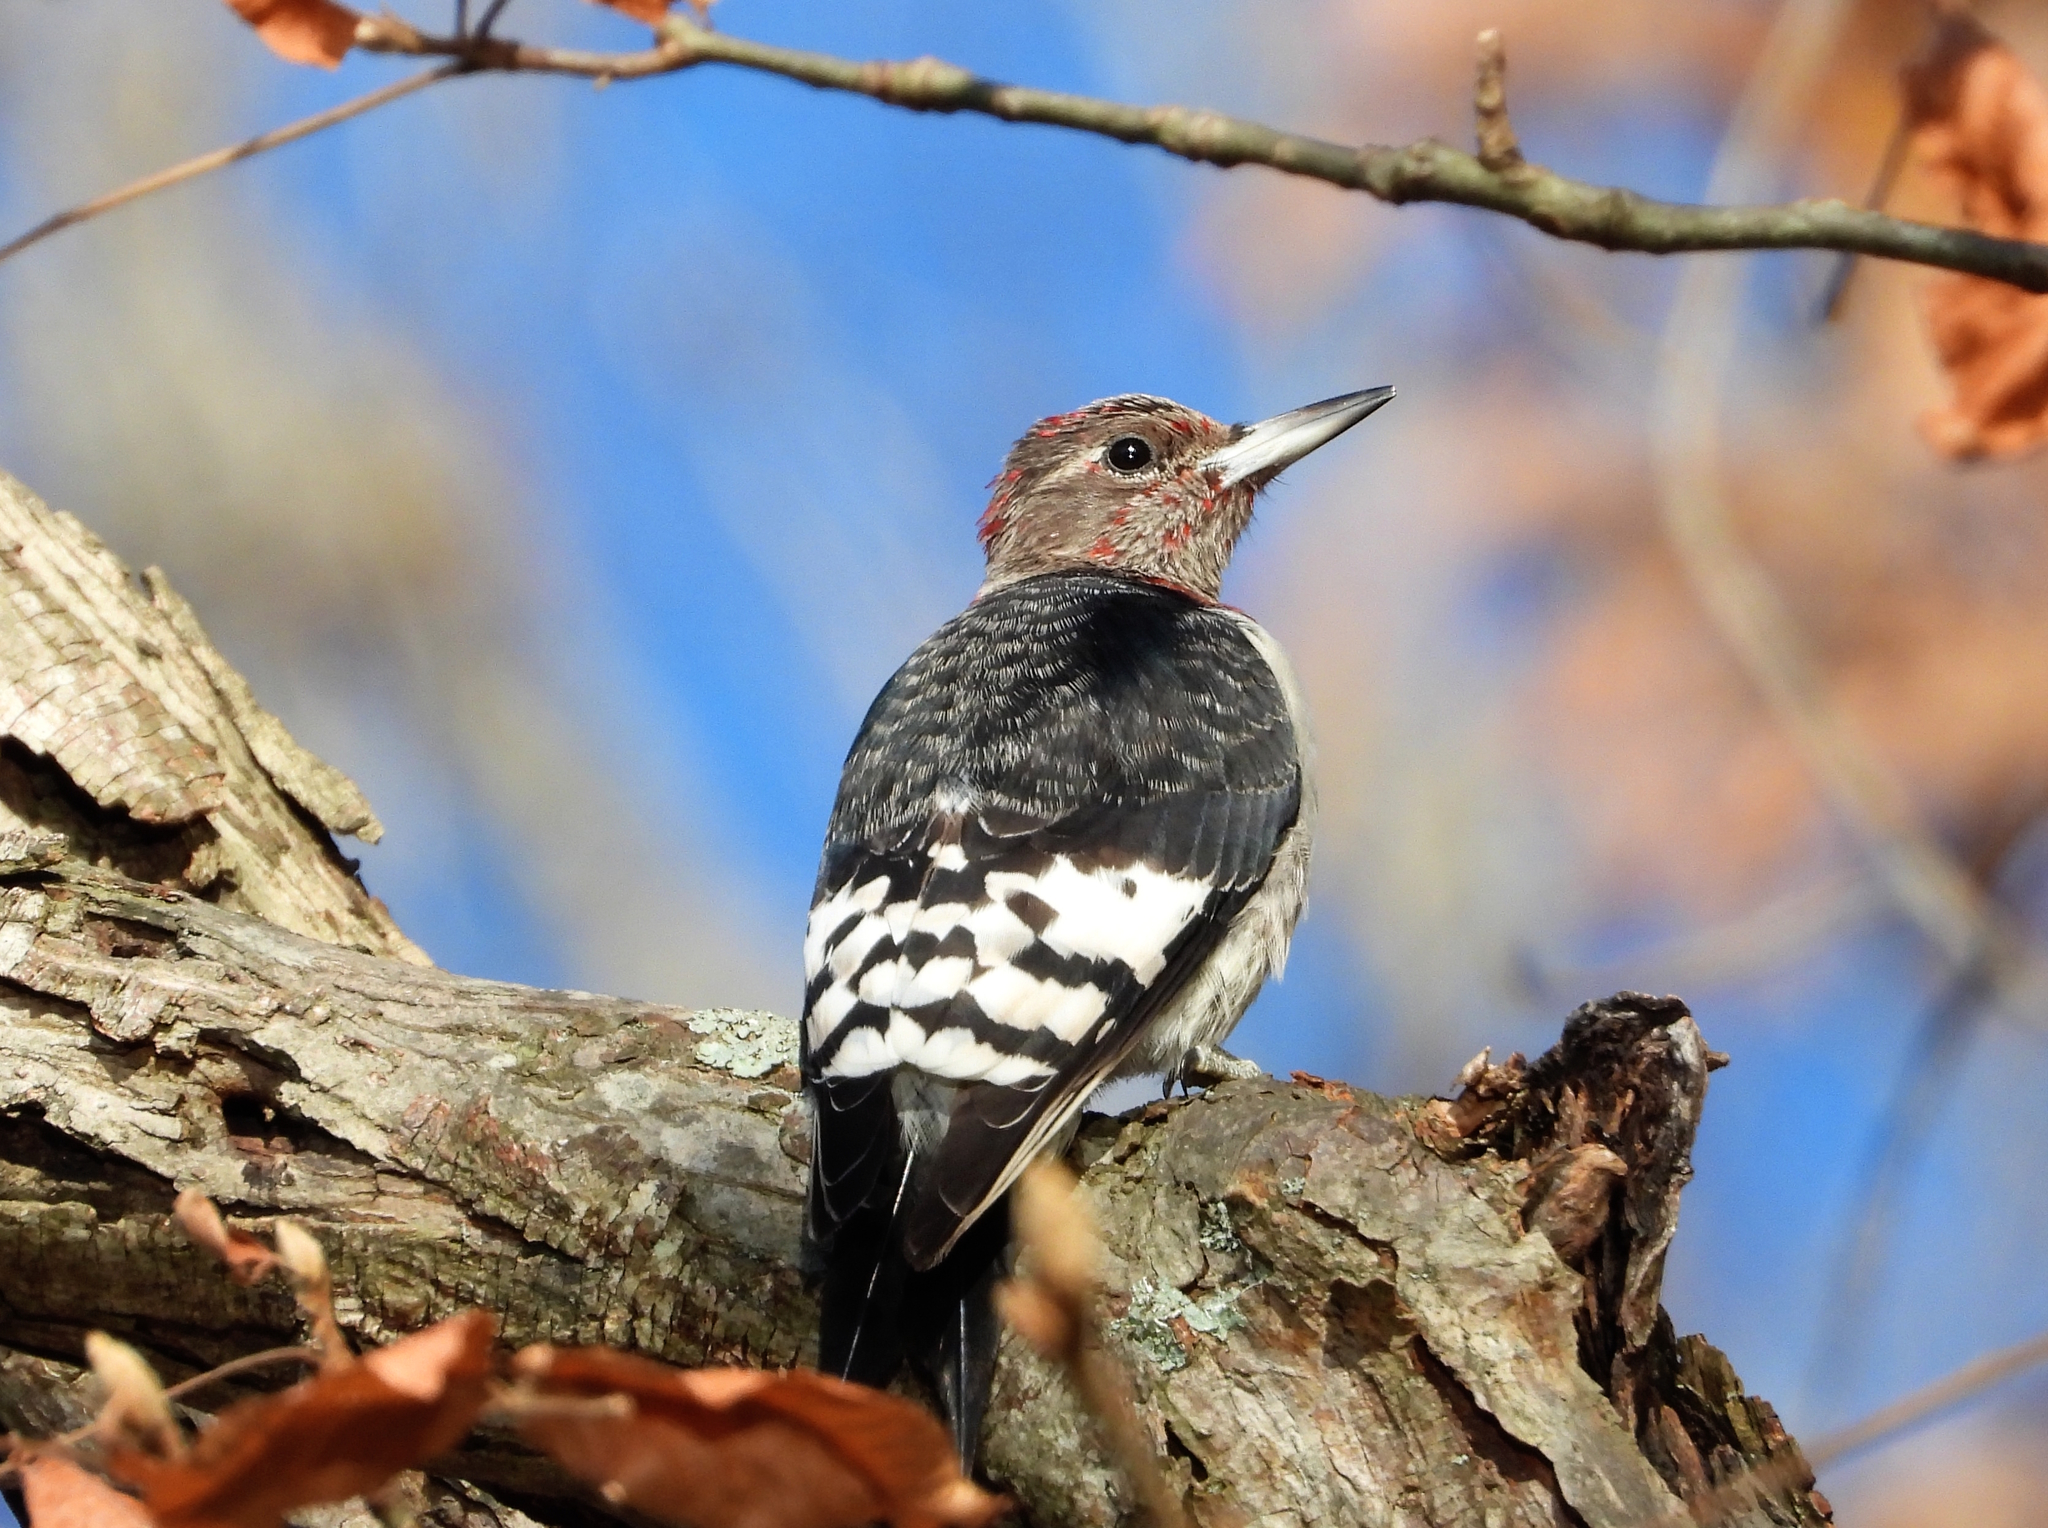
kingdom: Animalia
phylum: Chordata
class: Aves
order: Piciformes
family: Picidae
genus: Melanerpes
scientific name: Melanerpes erythrocephalus
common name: Red-headed woodpecker
